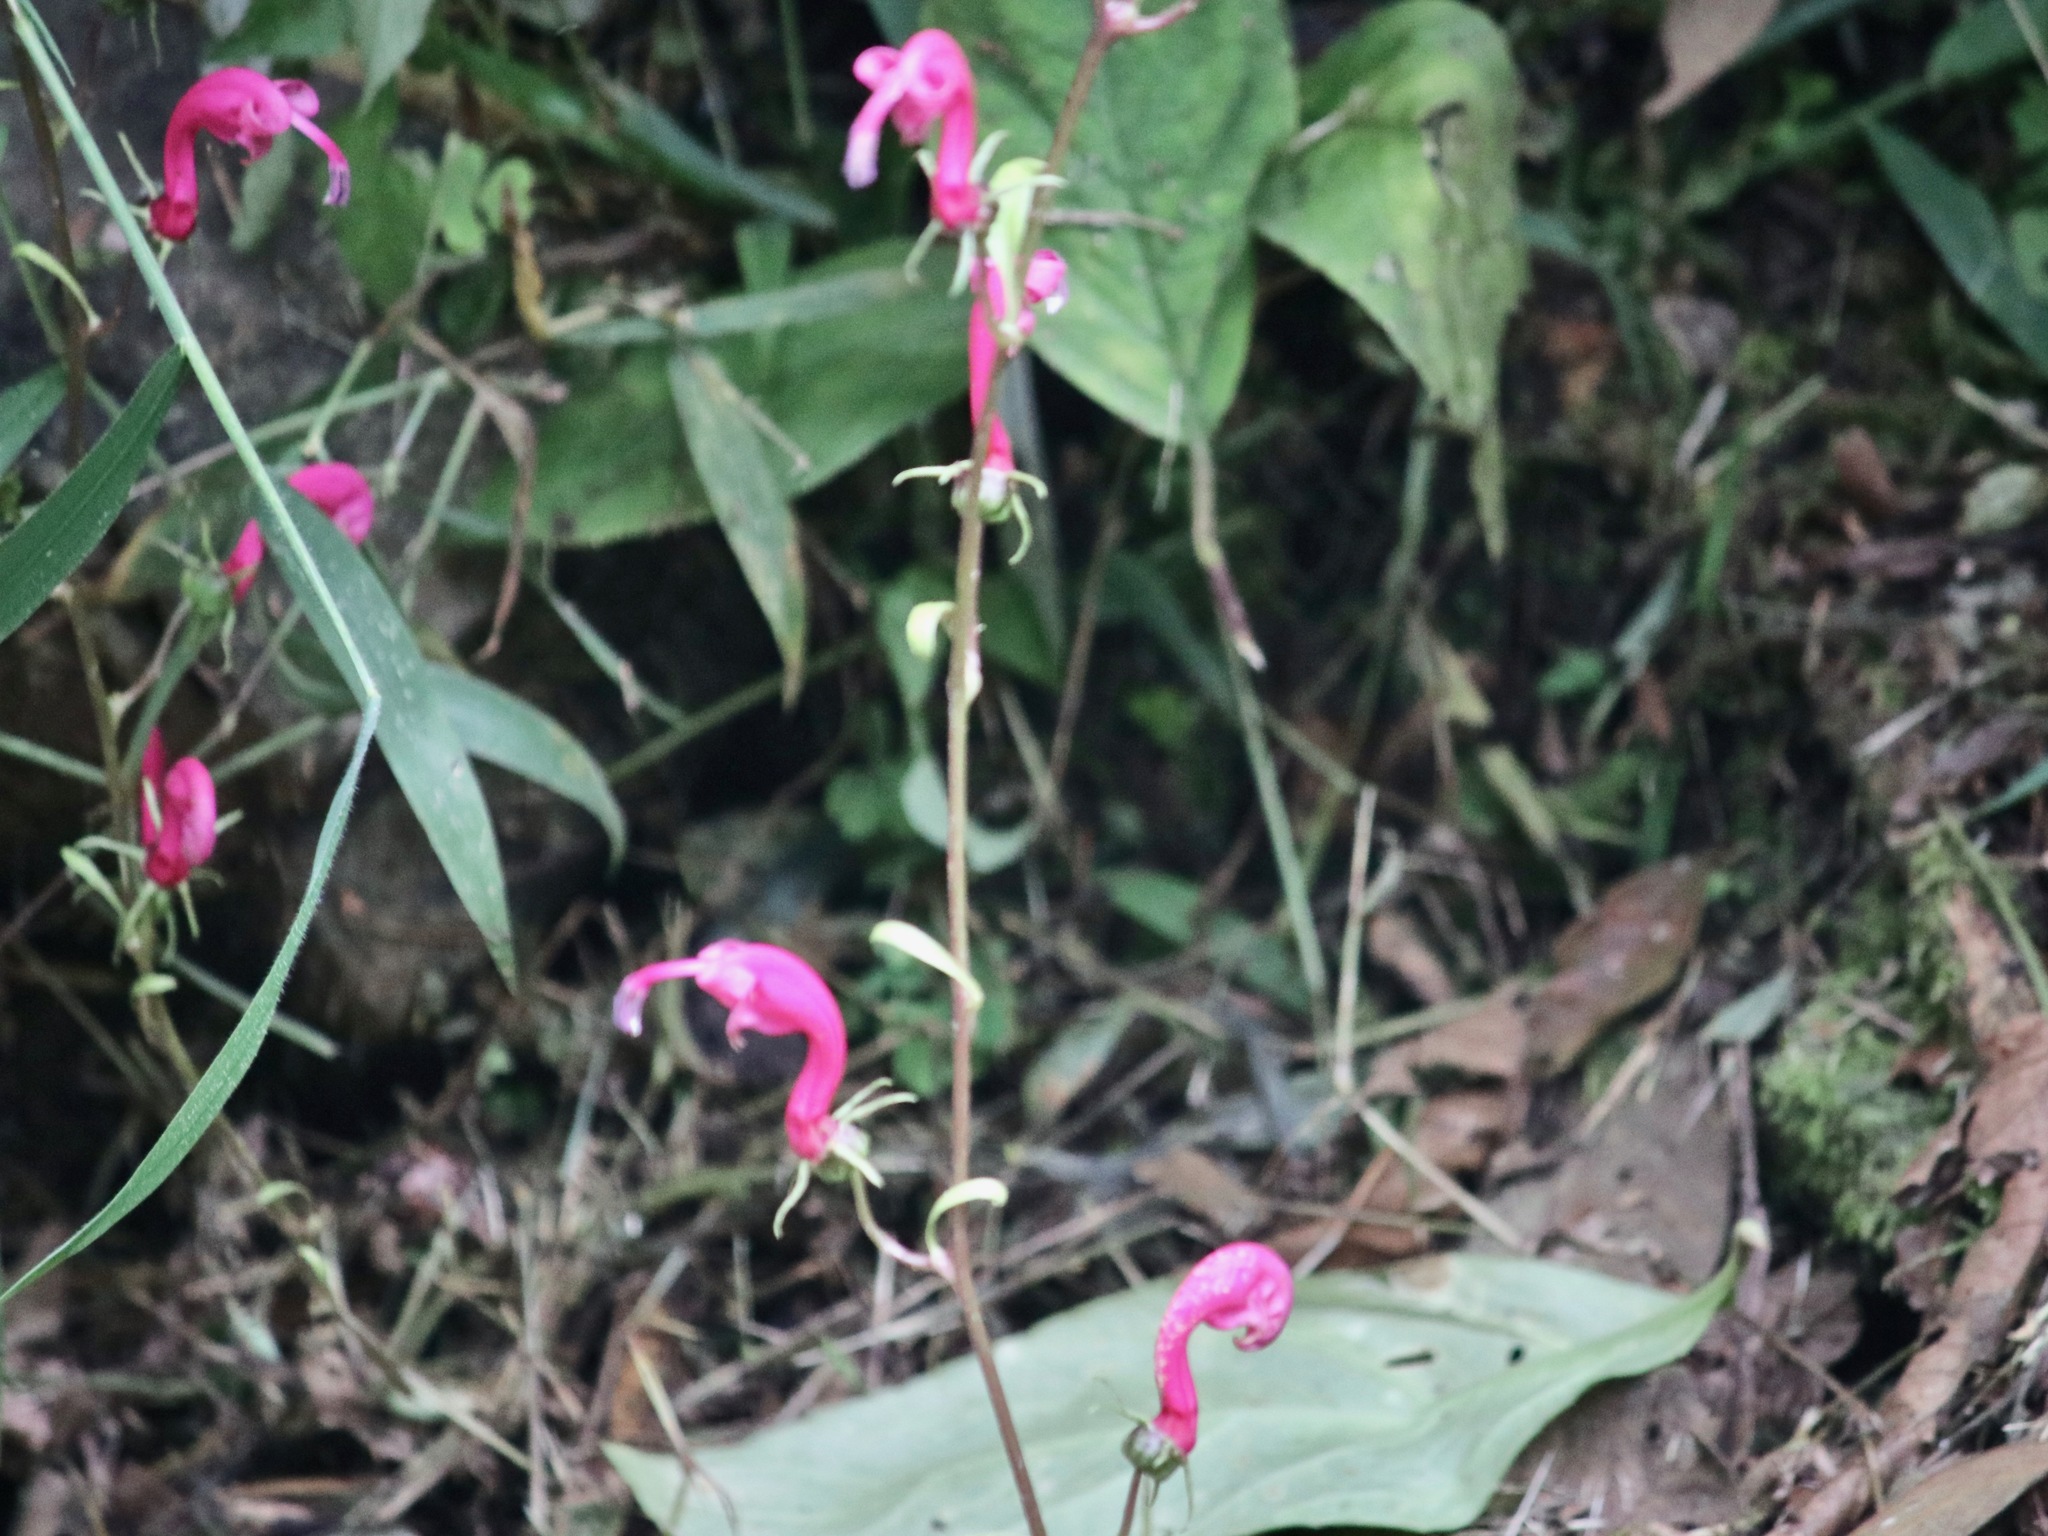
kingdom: Plantae
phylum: Tracheophyta
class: Magnoliopsida
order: Asterales
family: Campanulaceae
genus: Centropogon
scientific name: Centropogon urubambae
